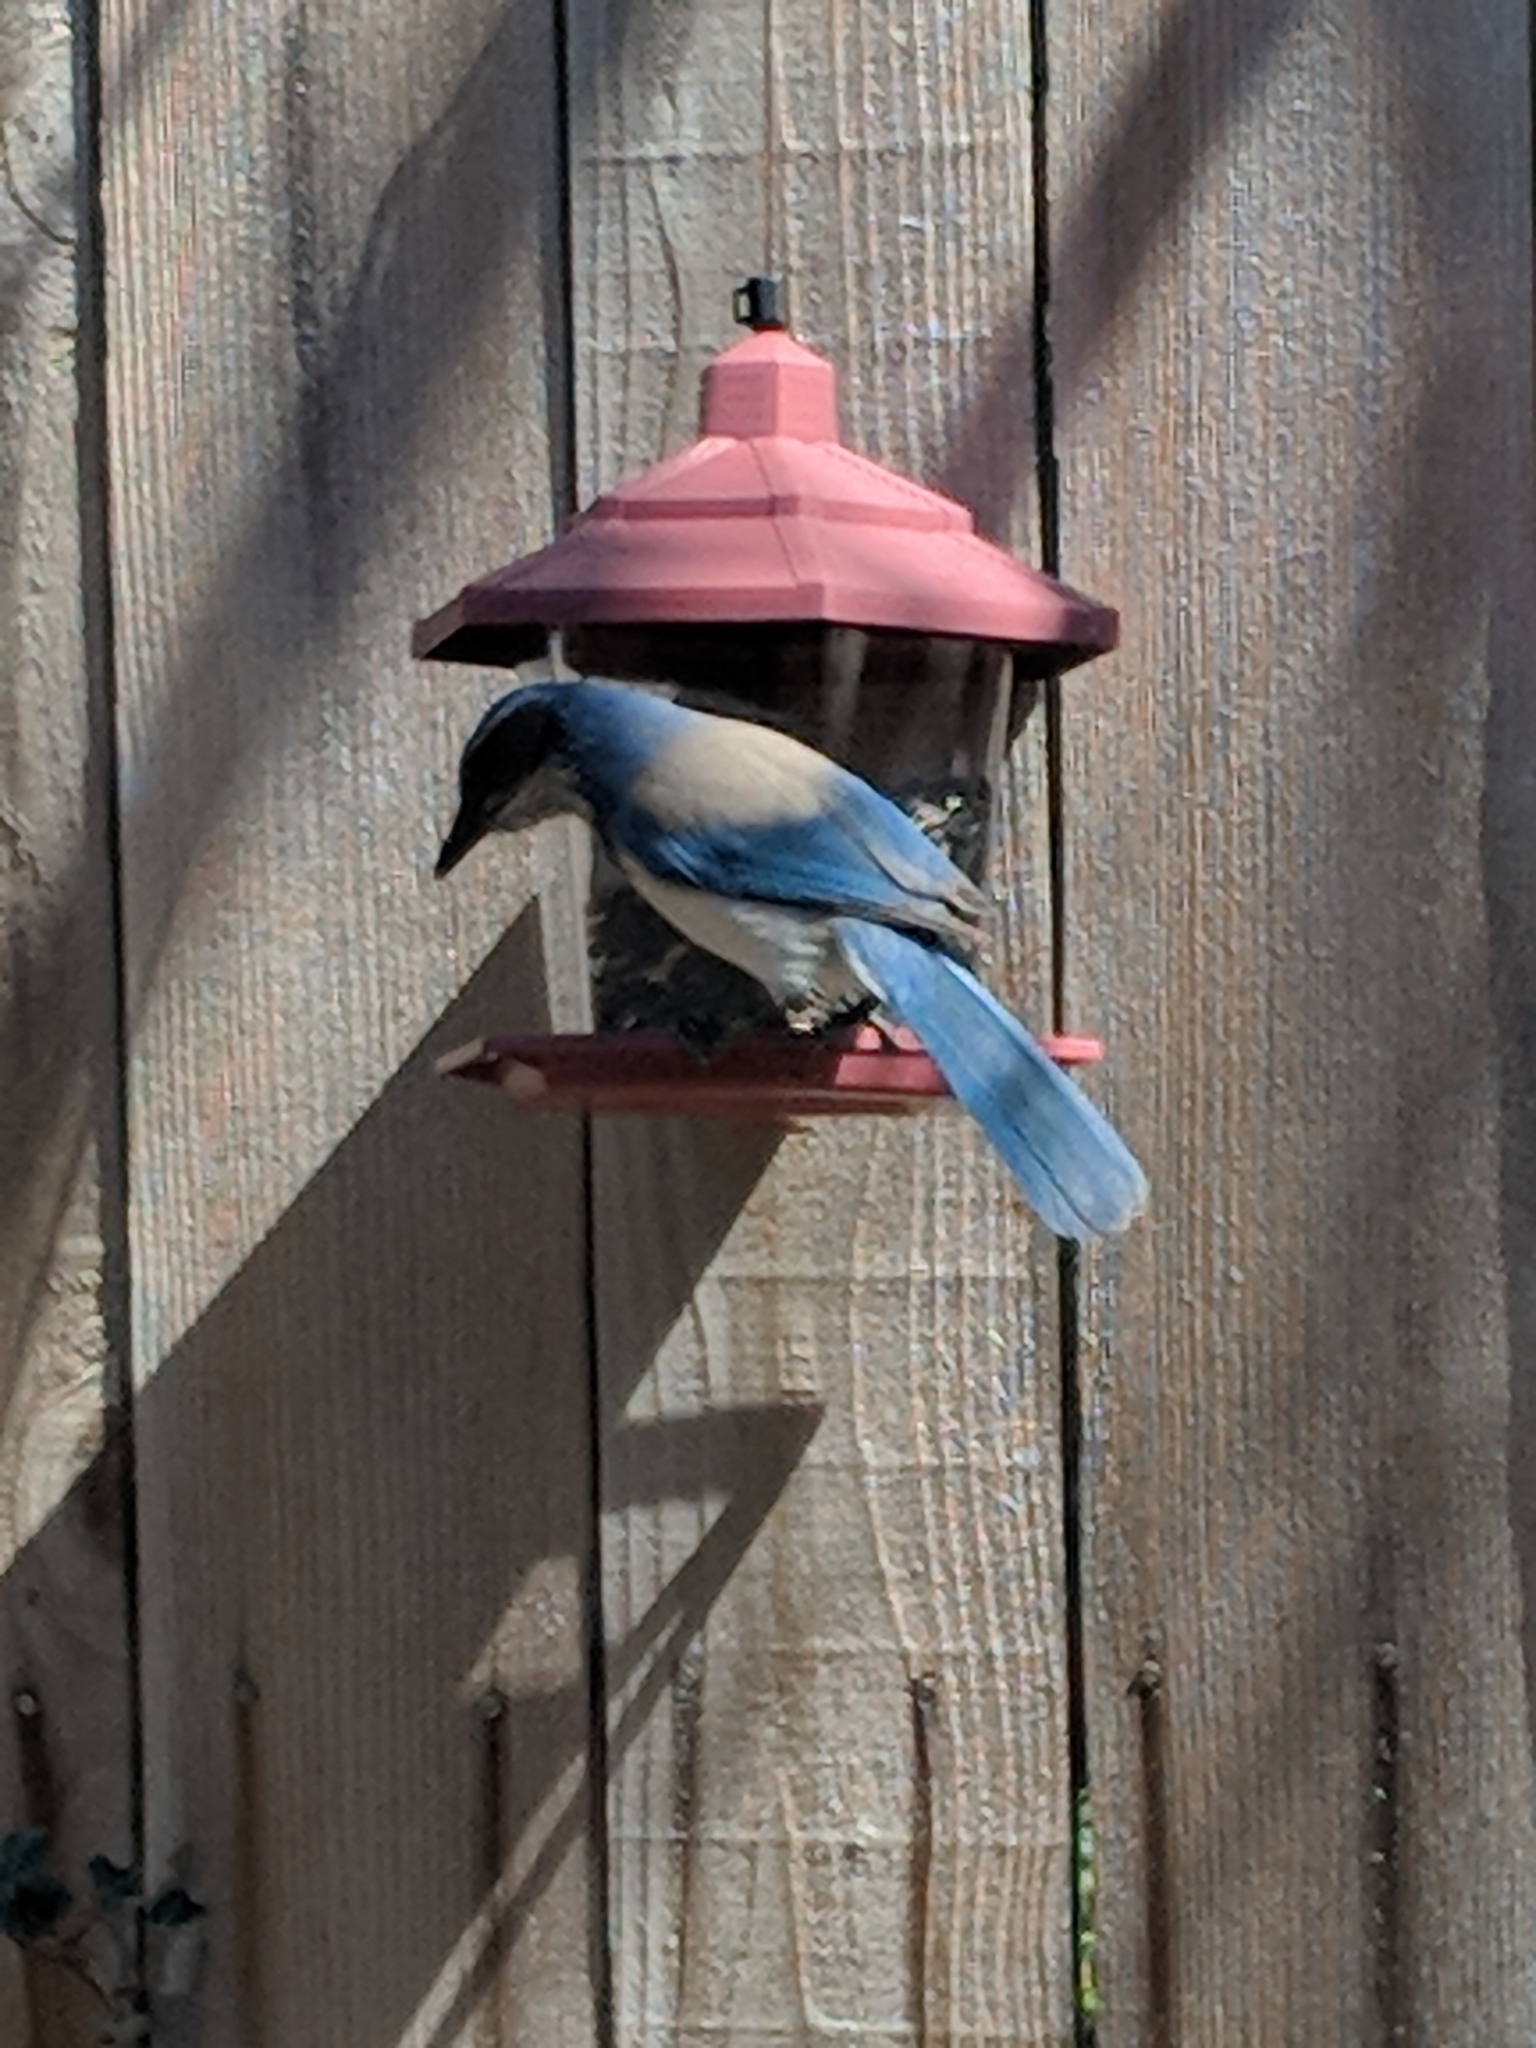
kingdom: Animalia
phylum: Chordata
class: Aves
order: Passeriformes
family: Corvidae
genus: Aphelocoma
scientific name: Aphelocoma californica
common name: California scrub-jay
